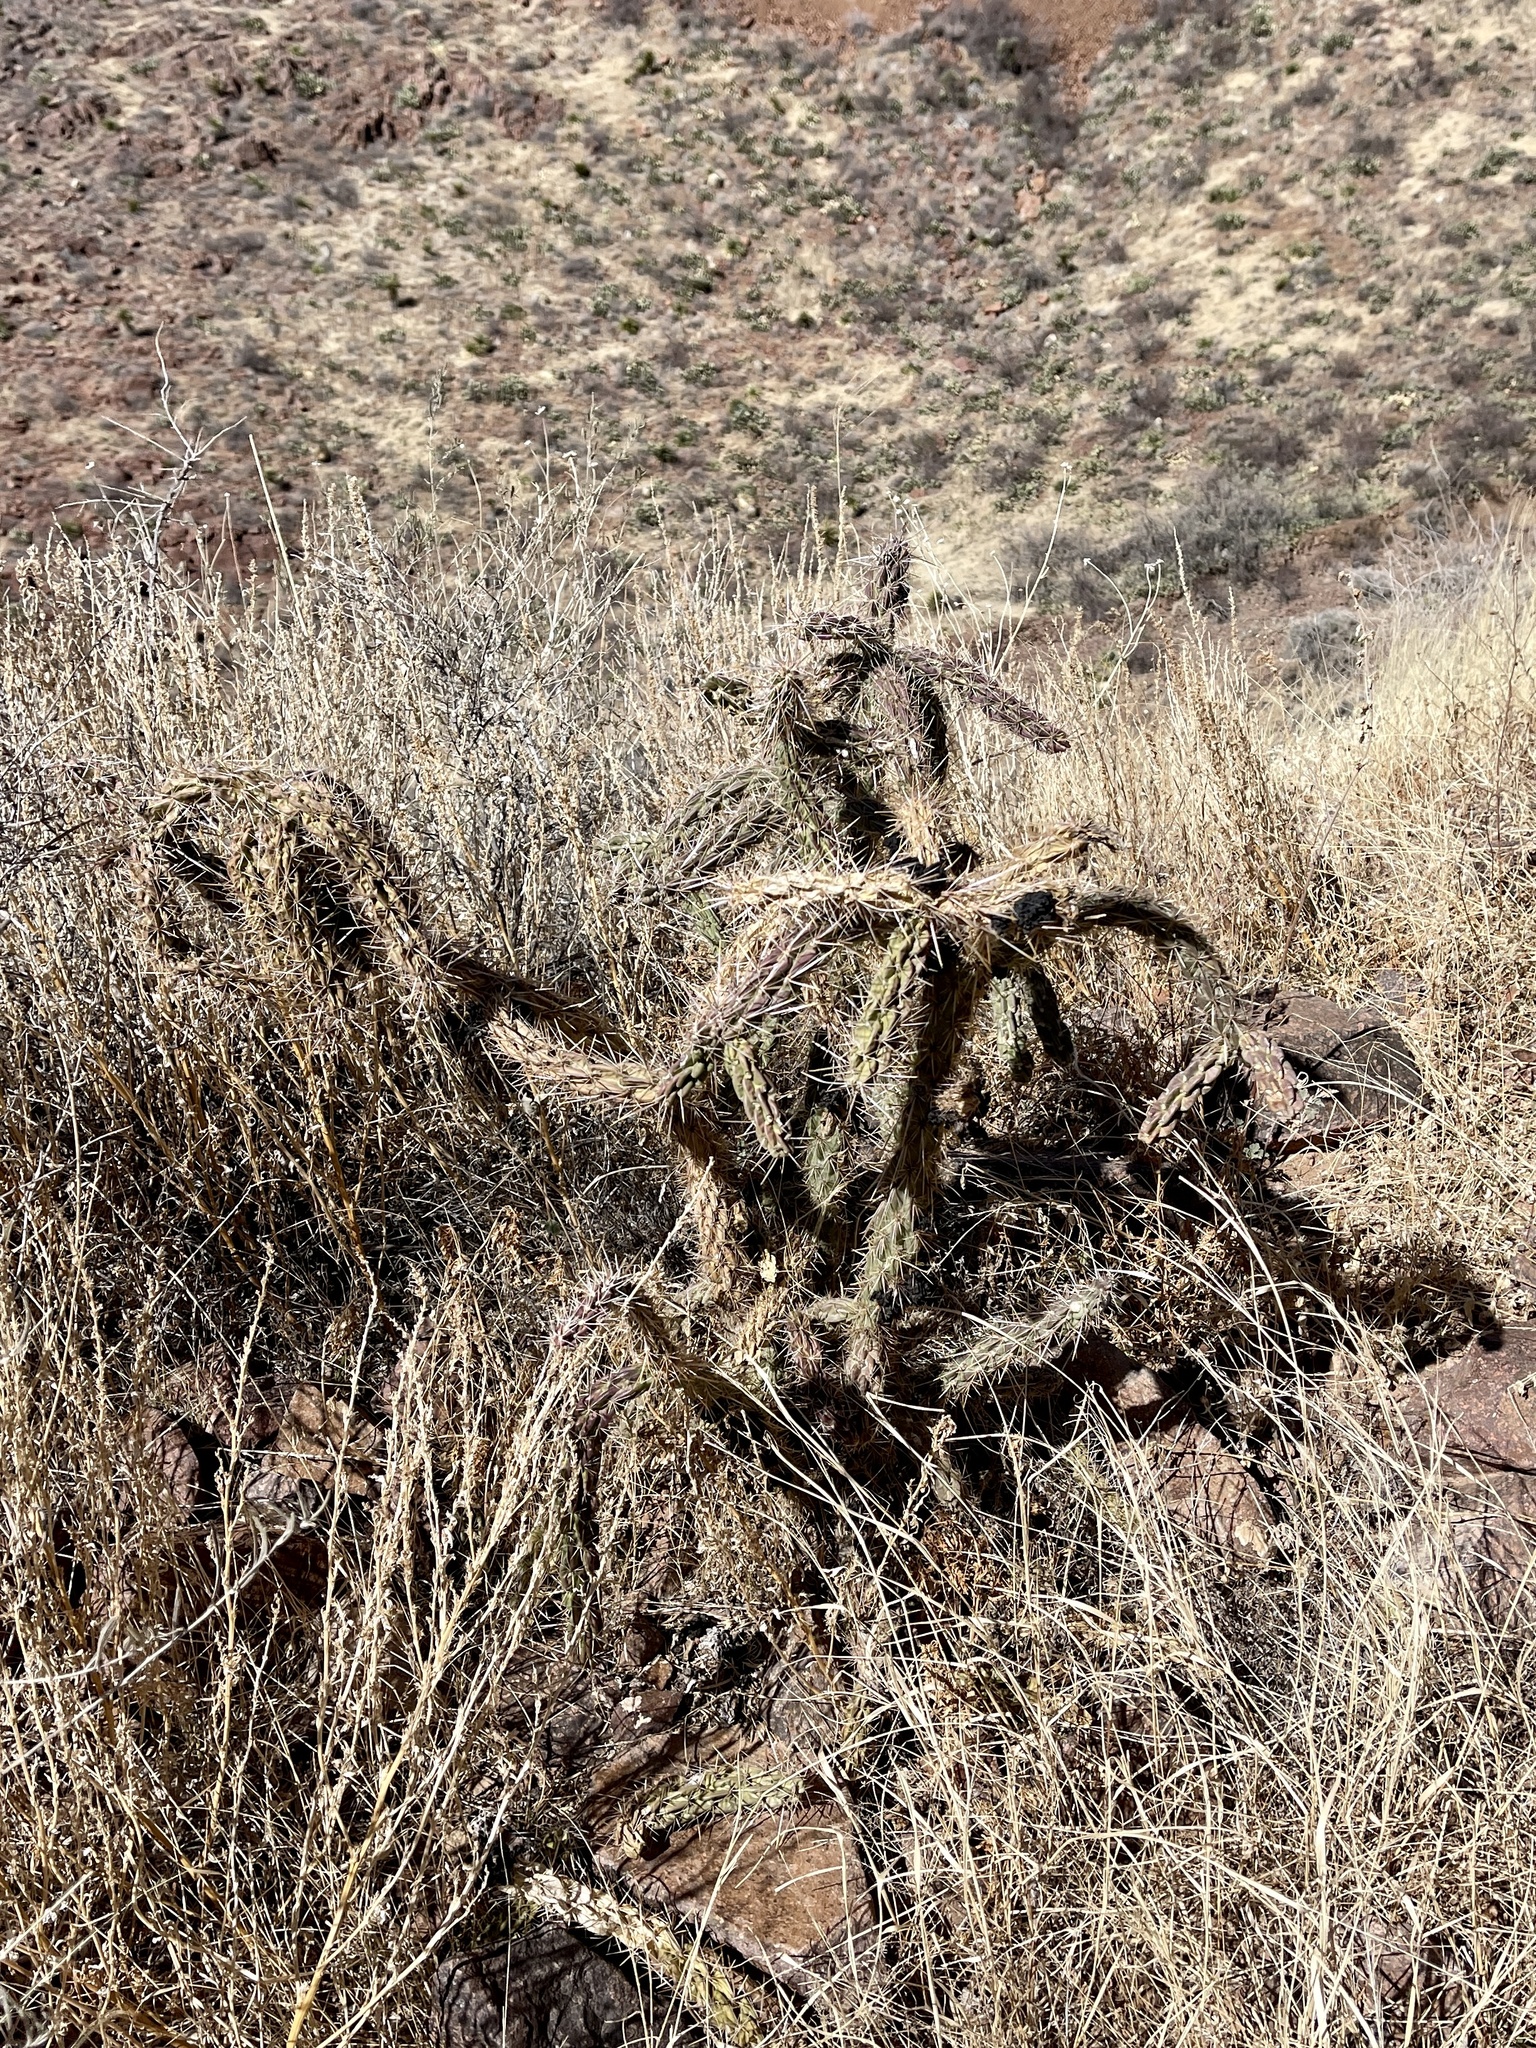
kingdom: Plantae
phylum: Tracheophyta
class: Magnoliopsida
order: Caryophyllales
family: Cactaceae
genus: Cylindropuntia
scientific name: Cylindropuntia imbricata
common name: Candelabrum cactus
